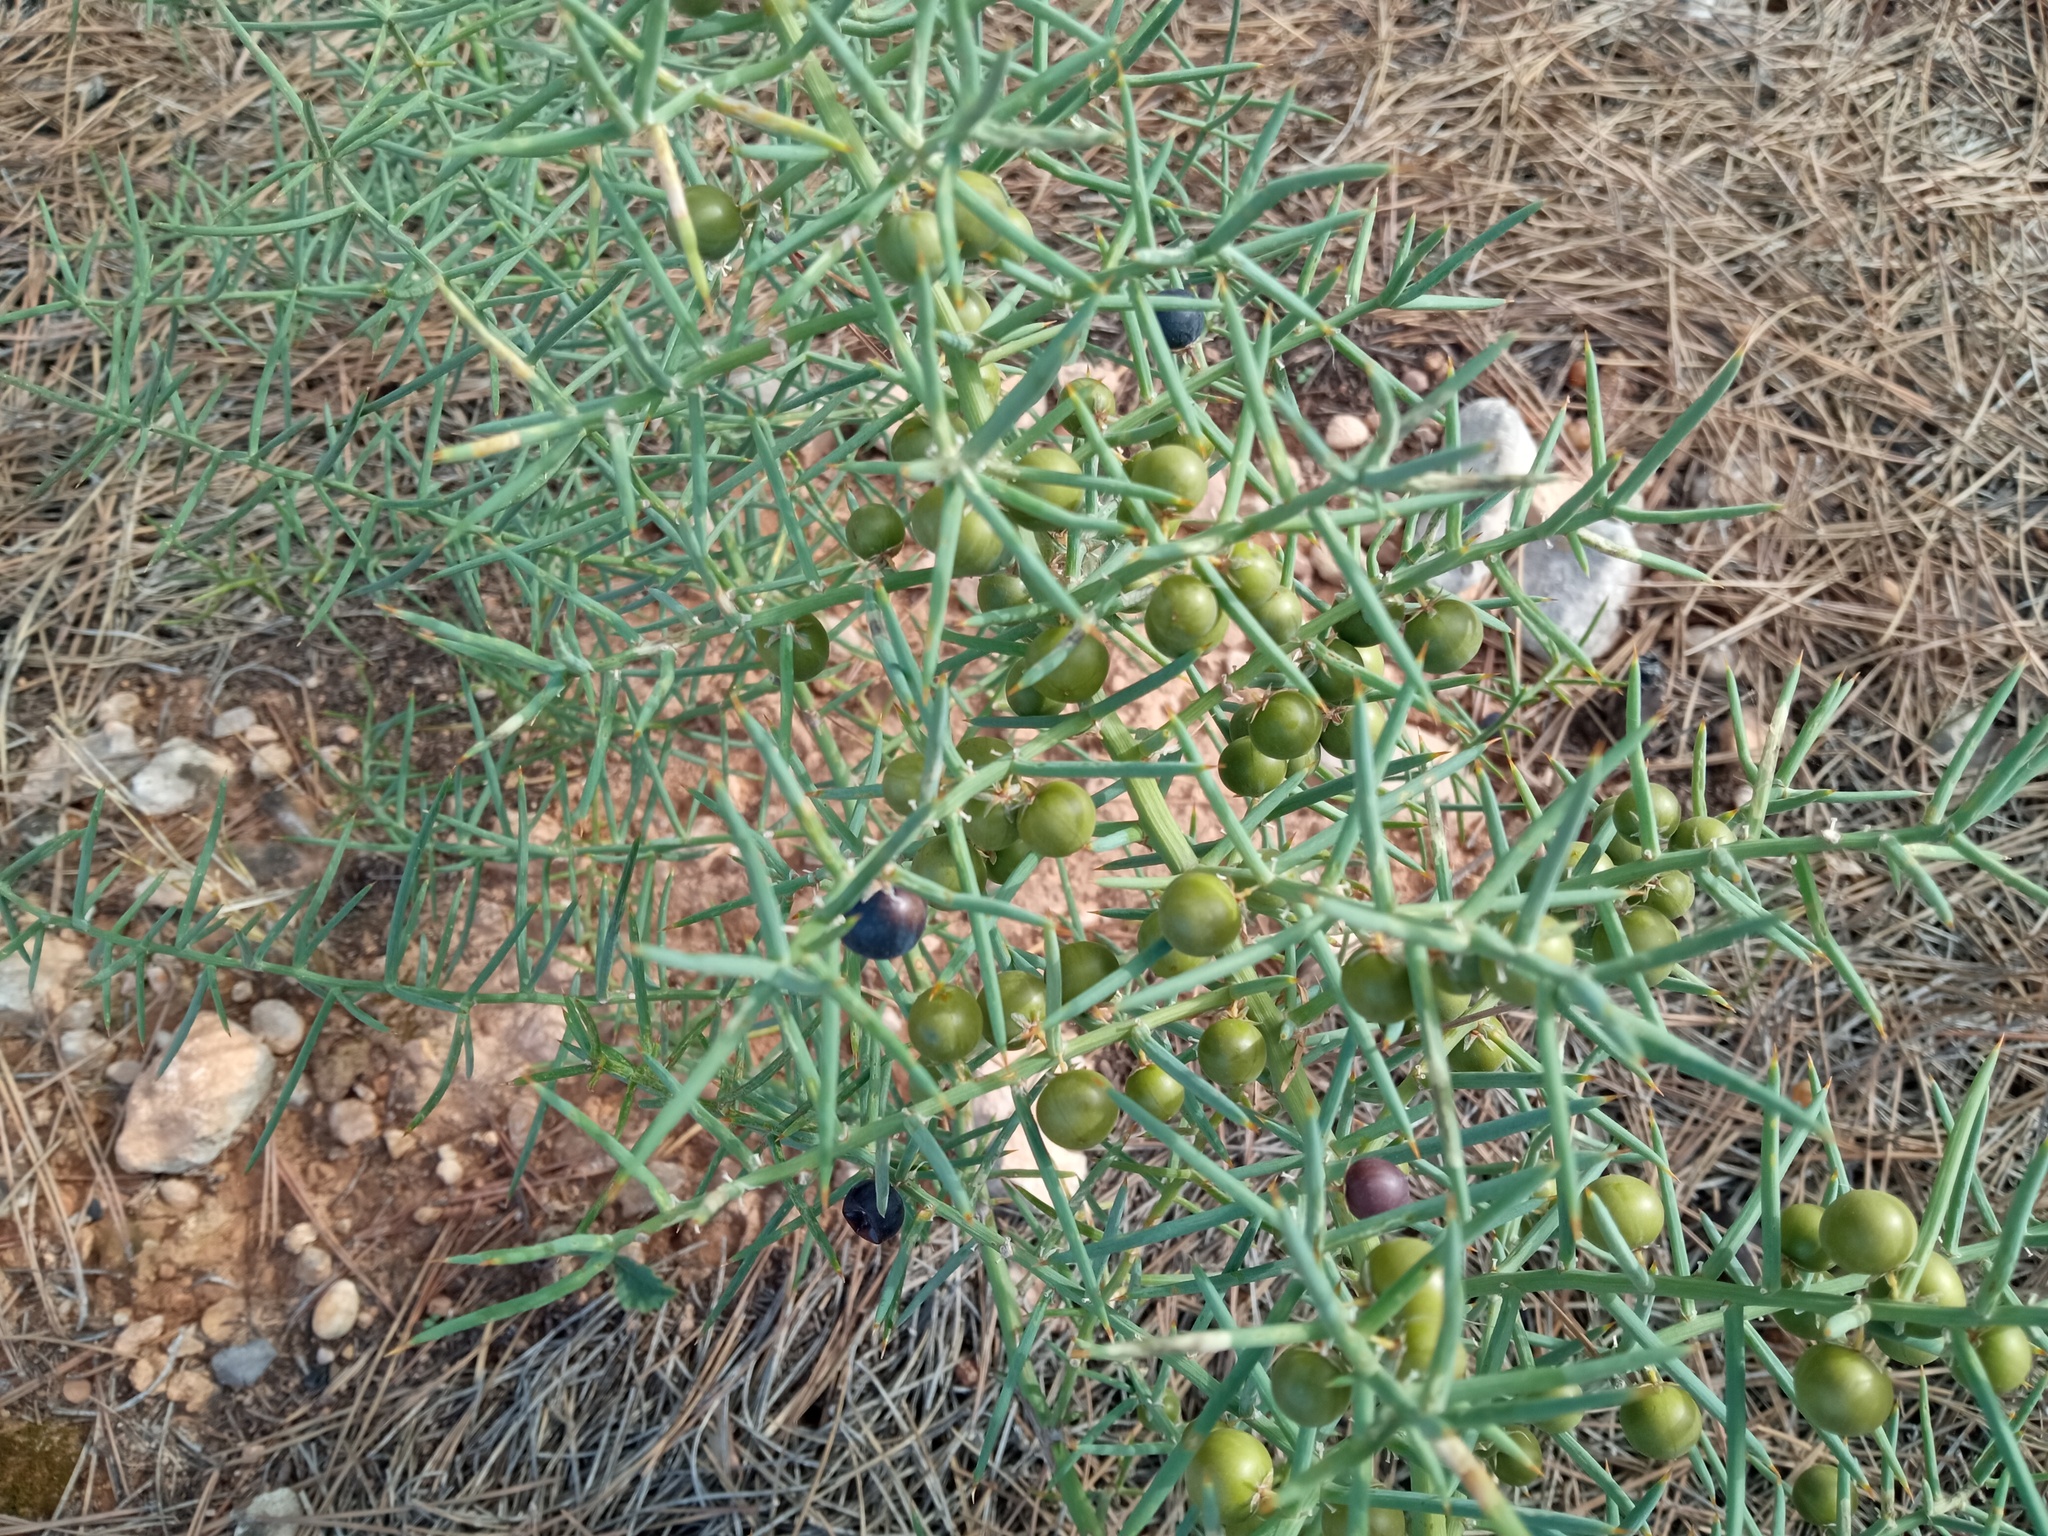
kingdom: Plantae
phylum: Tracheophyta
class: Liliopsida
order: Asparagales
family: Asparagaceae
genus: Asparagus
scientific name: Asparagus horridus
